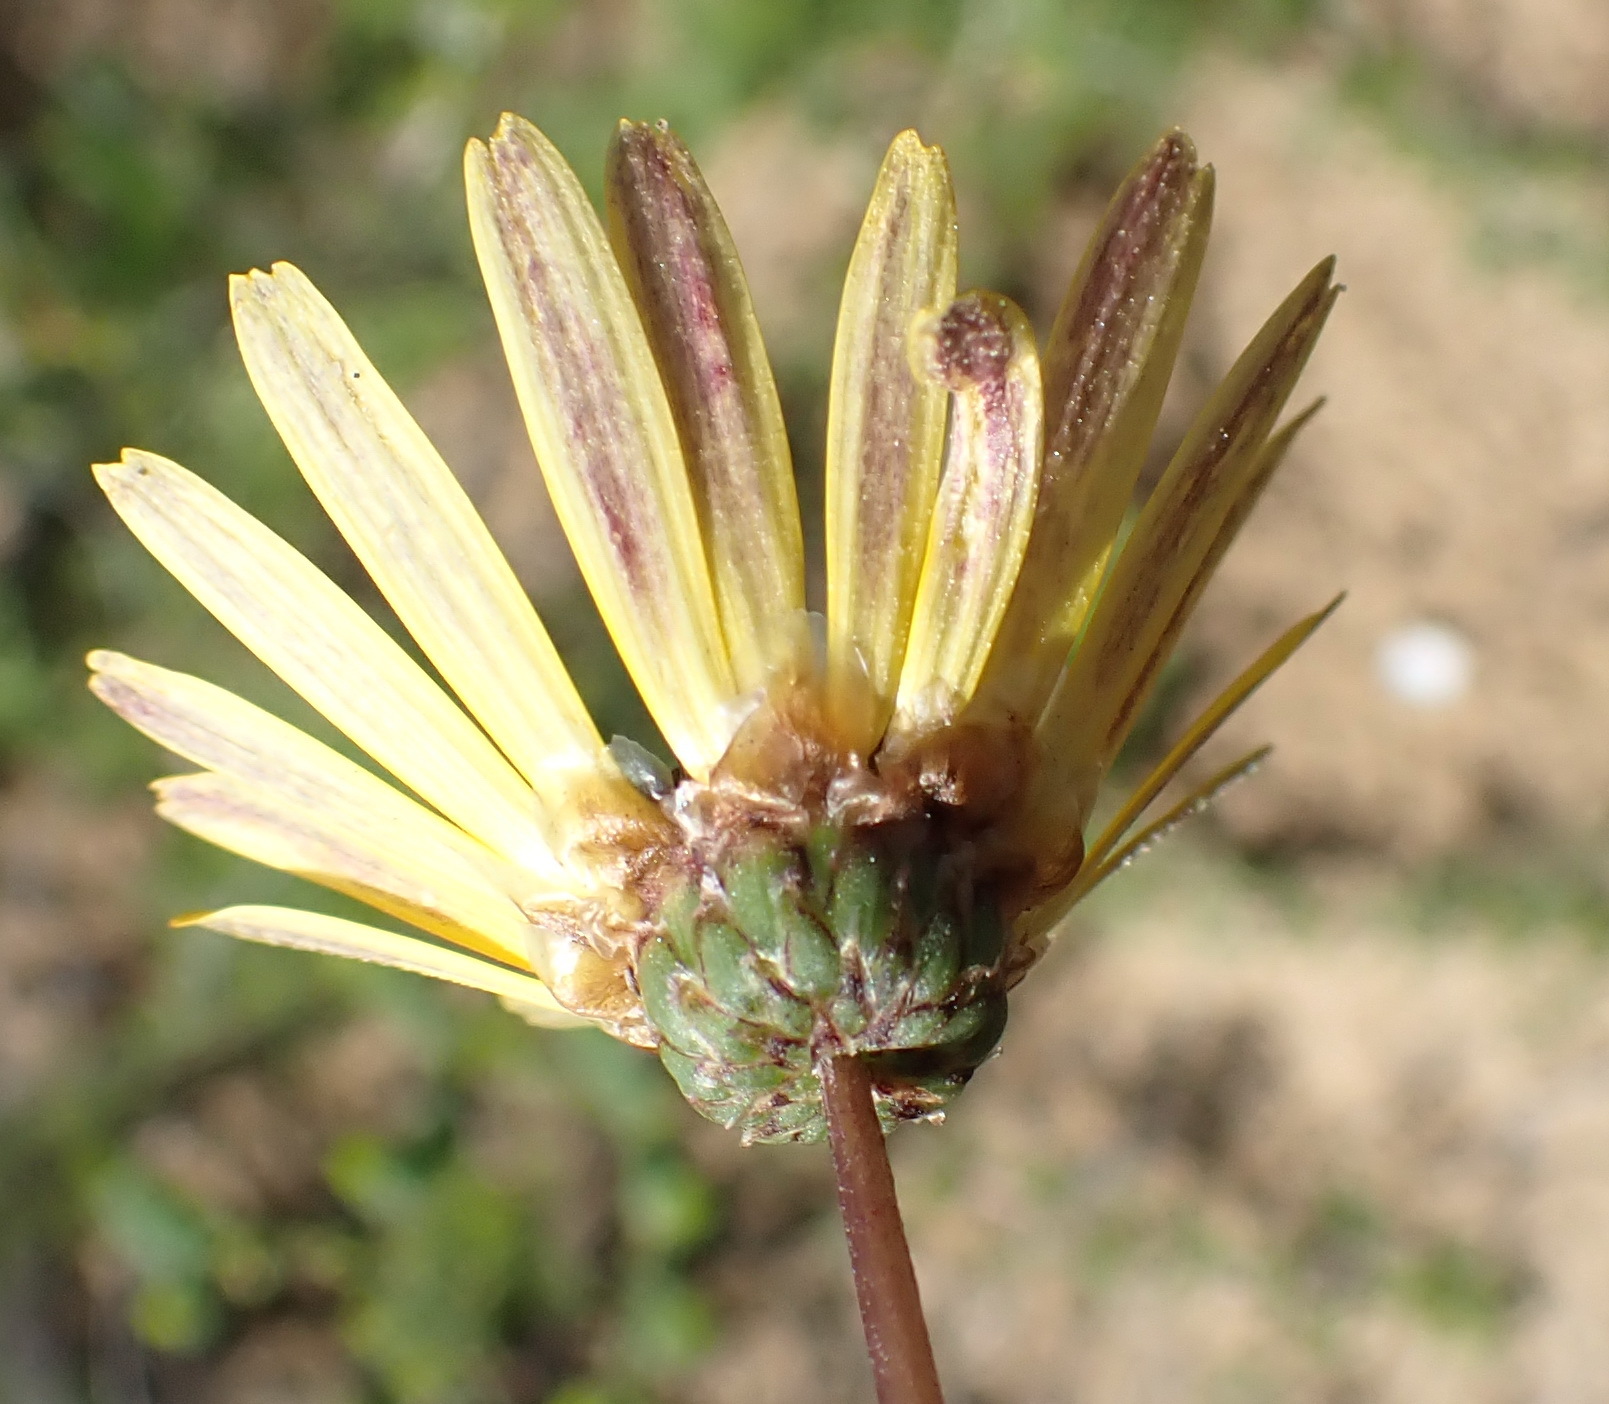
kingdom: Plantae
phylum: Tracheophyta
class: Magnoliopsida
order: Asterales
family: Asteraceae
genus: Ursinia
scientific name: Ursinia chrysanthemoides
